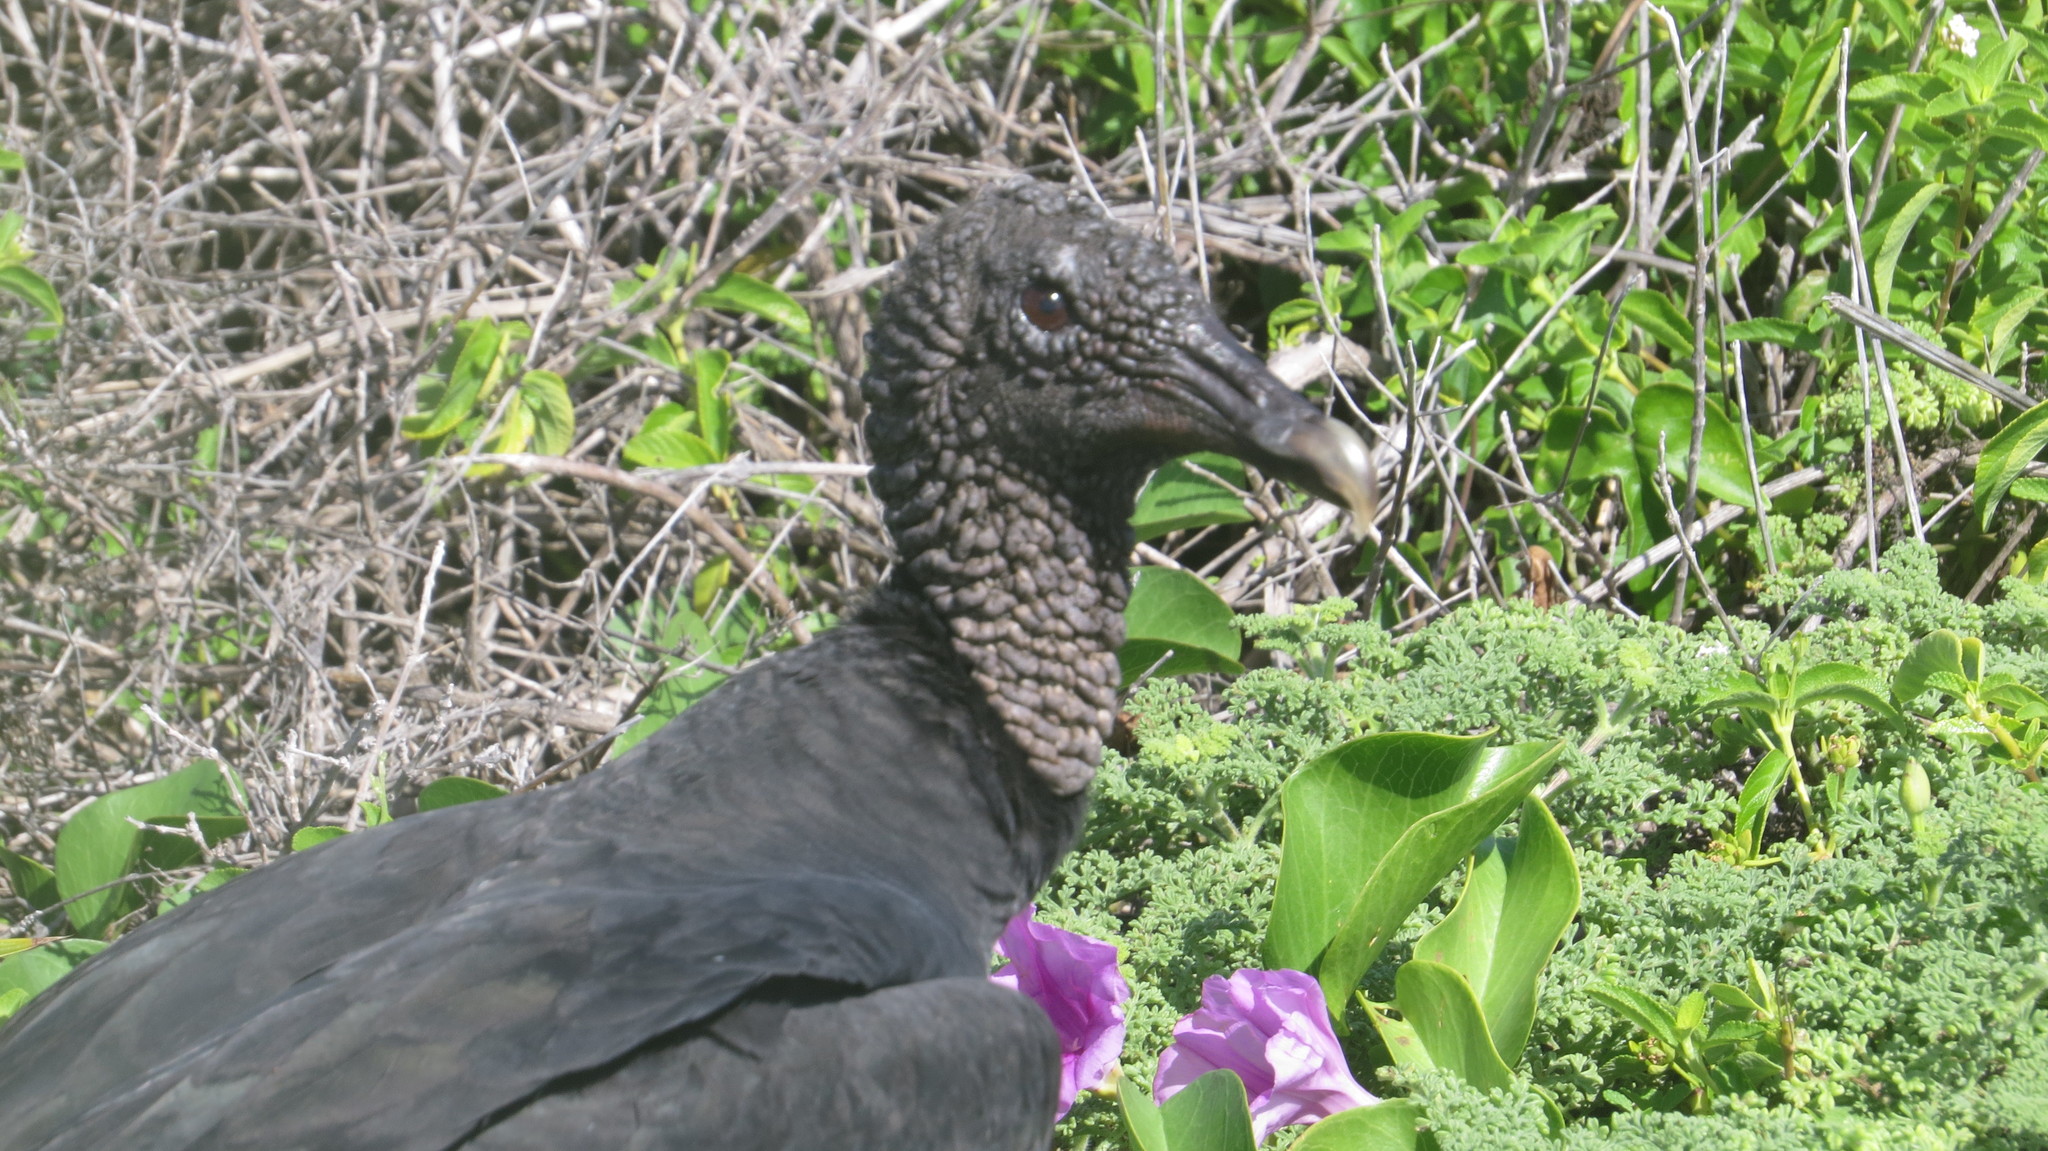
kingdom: Animalia
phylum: Chordata
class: Aves
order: Accipitriformes
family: Cathartidae
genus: Coragyps
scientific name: Coragyps atratus
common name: Black vulture
